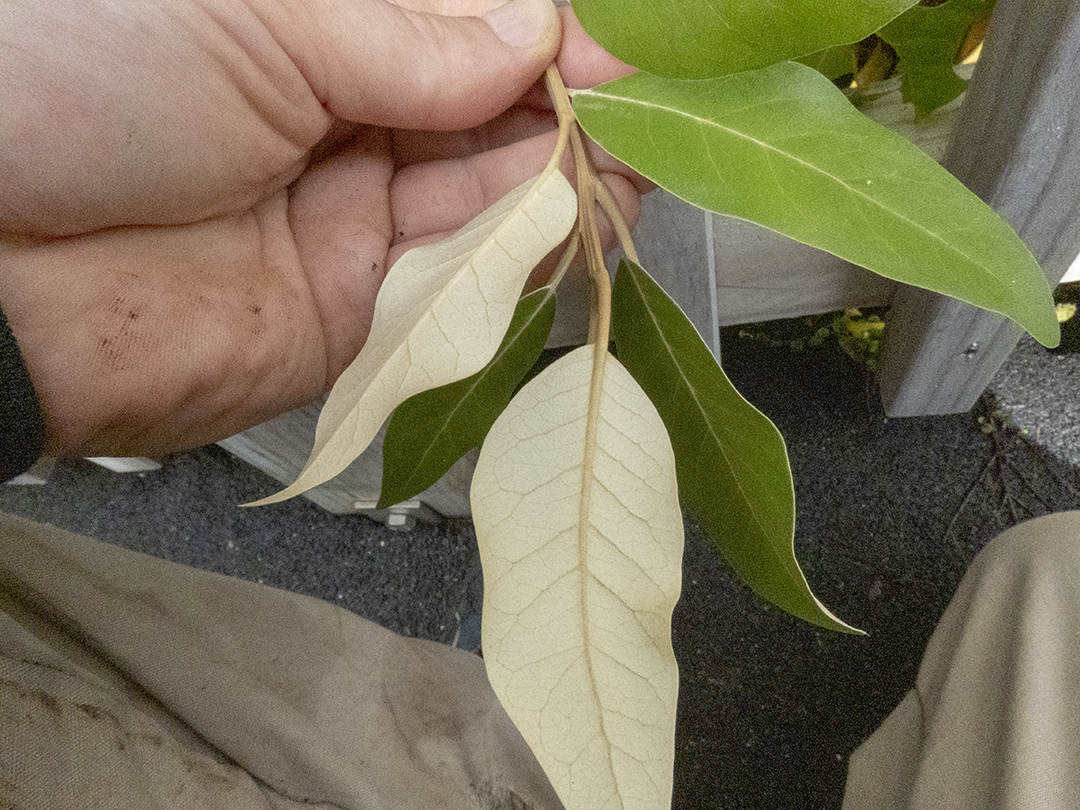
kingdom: Plantae
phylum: Tracheophyta
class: Magnoliopsida
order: Asterales
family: Asteraceae
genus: Olearia
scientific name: Olearia avicenniifolia
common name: Mangrove-leaf daisybush
